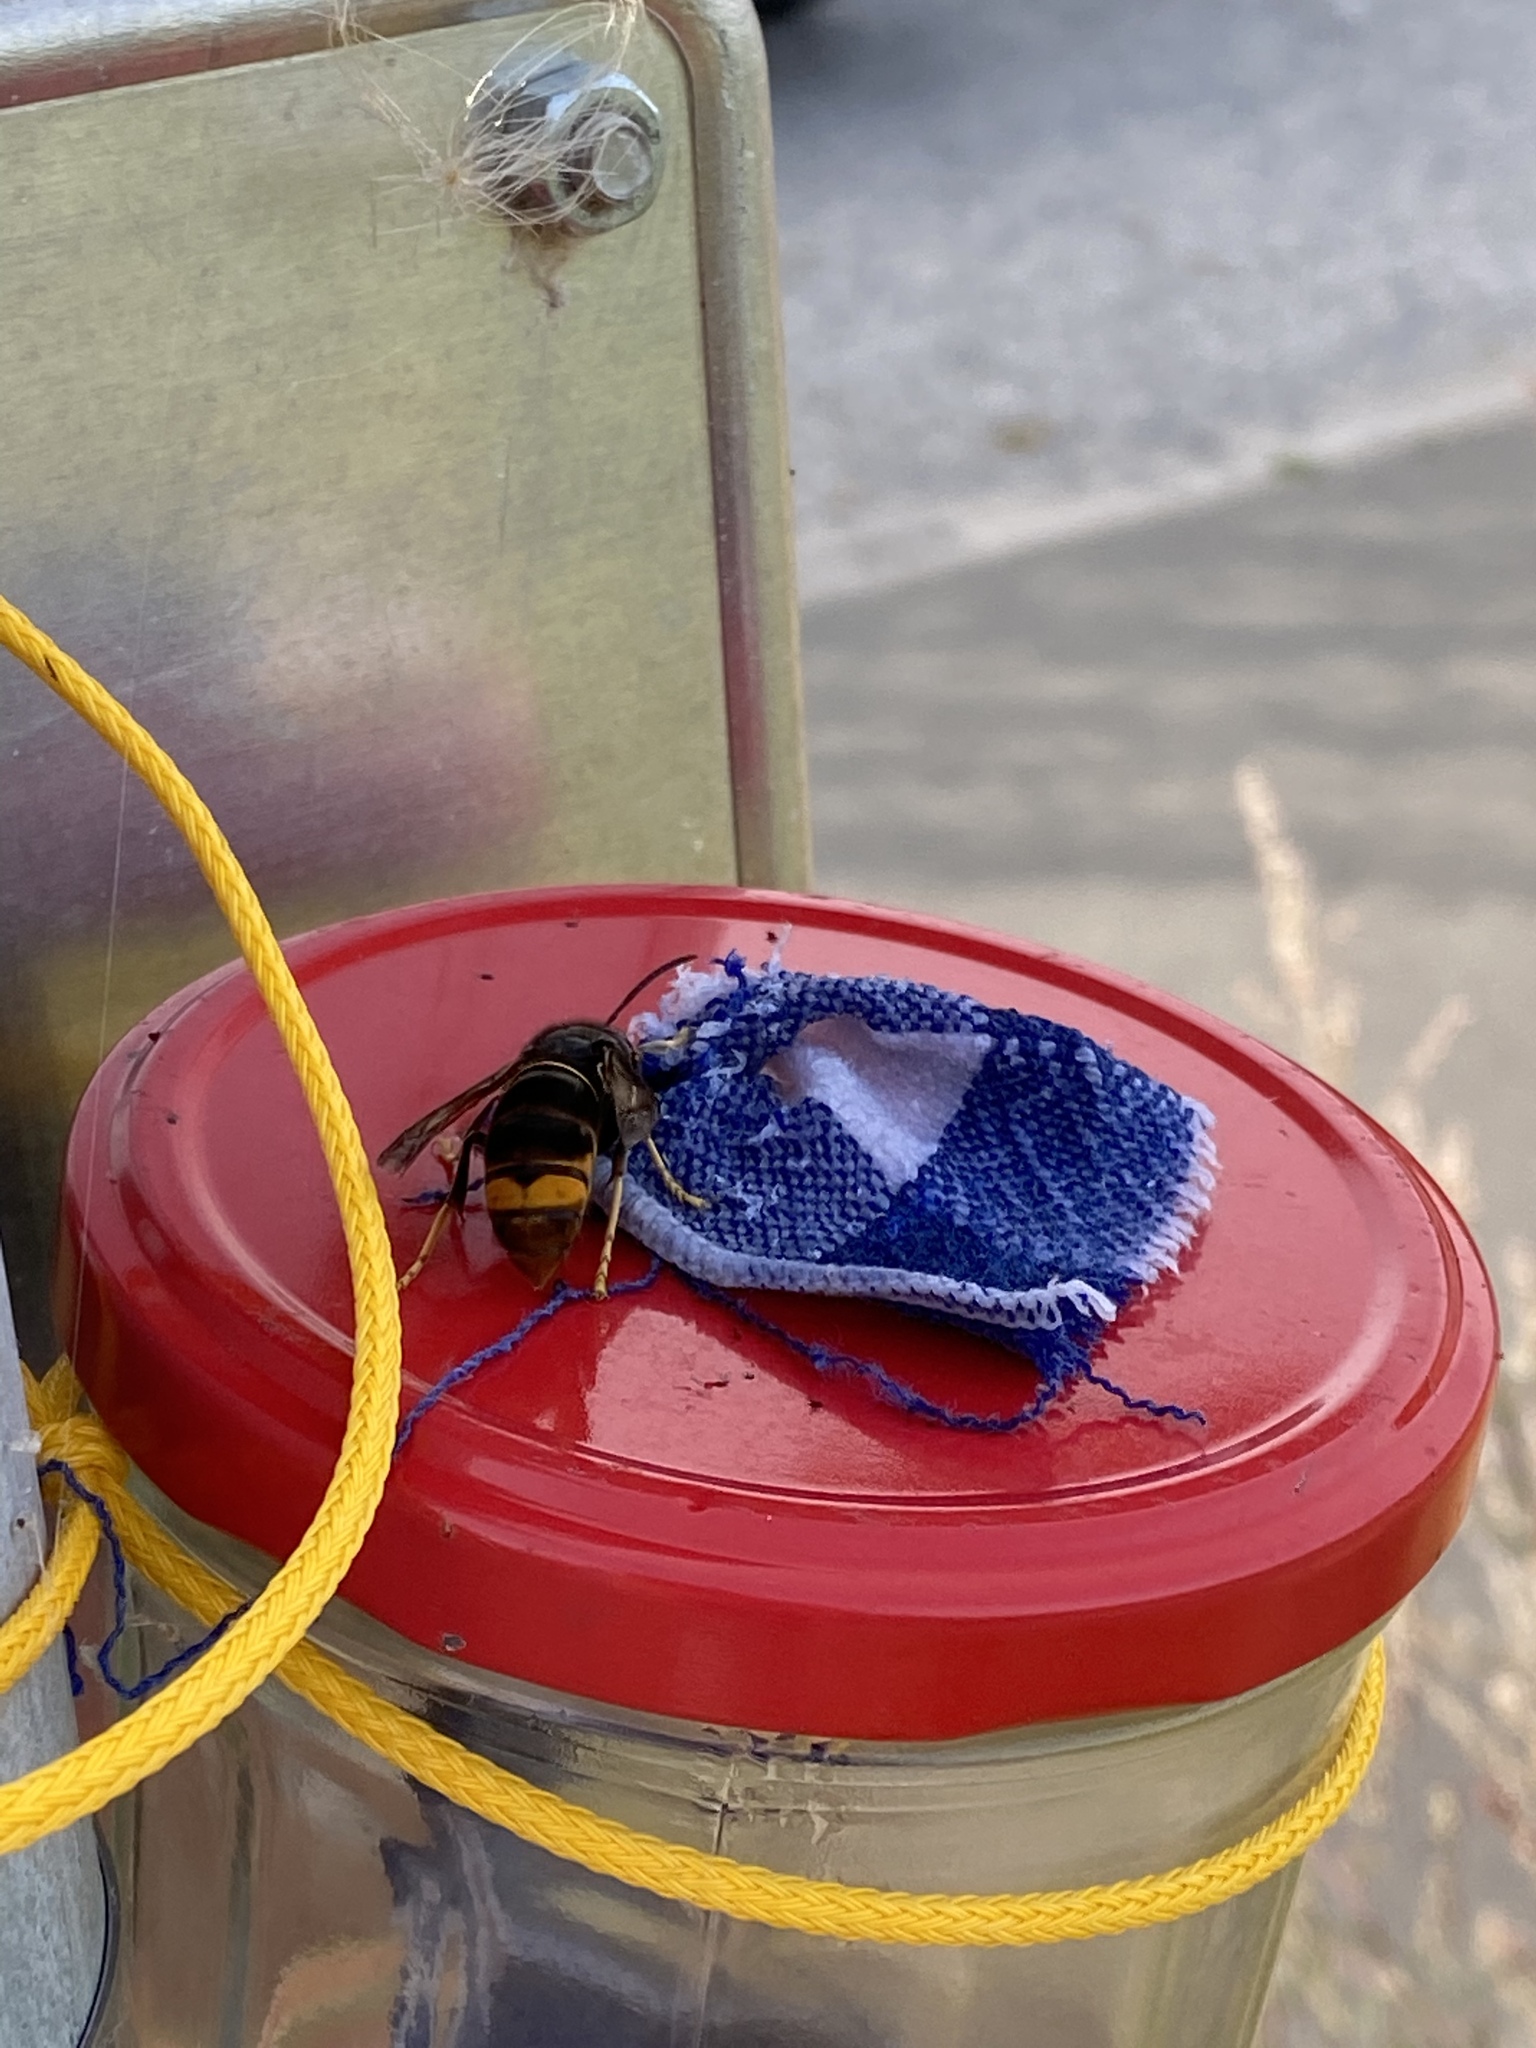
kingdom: Animalia
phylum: Arthropoda
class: Insecta
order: Hymenoptera
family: Vespidae
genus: Vespa
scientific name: Vespa velutina
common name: Asian hornet
